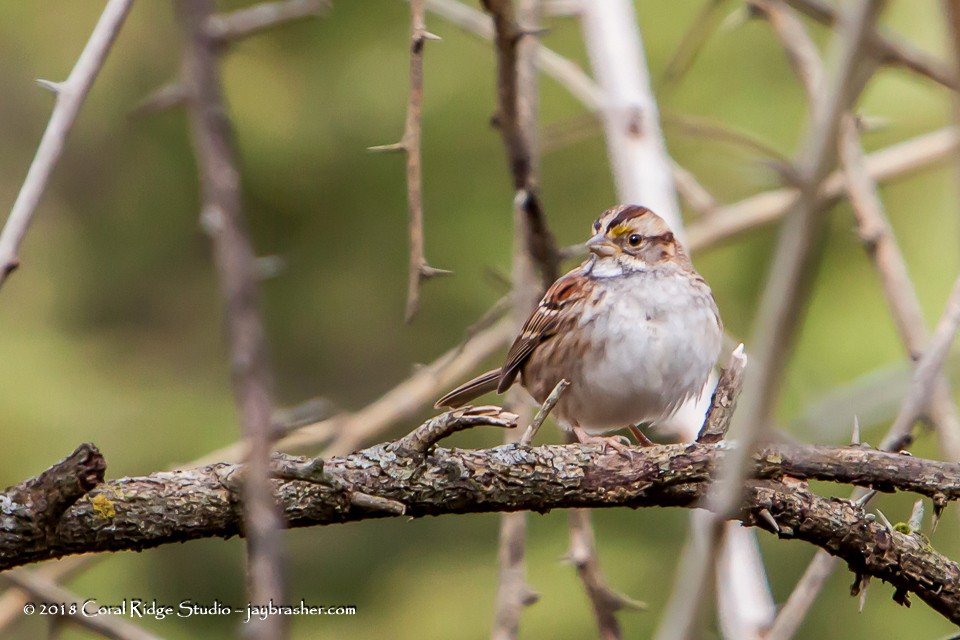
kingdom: Animalia
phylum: Chordata
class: Aves
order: Passeriformes
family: Passerellidae
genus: Zonotrichia
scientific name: Zonotrichia albicollis
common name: White-throated sparrow
